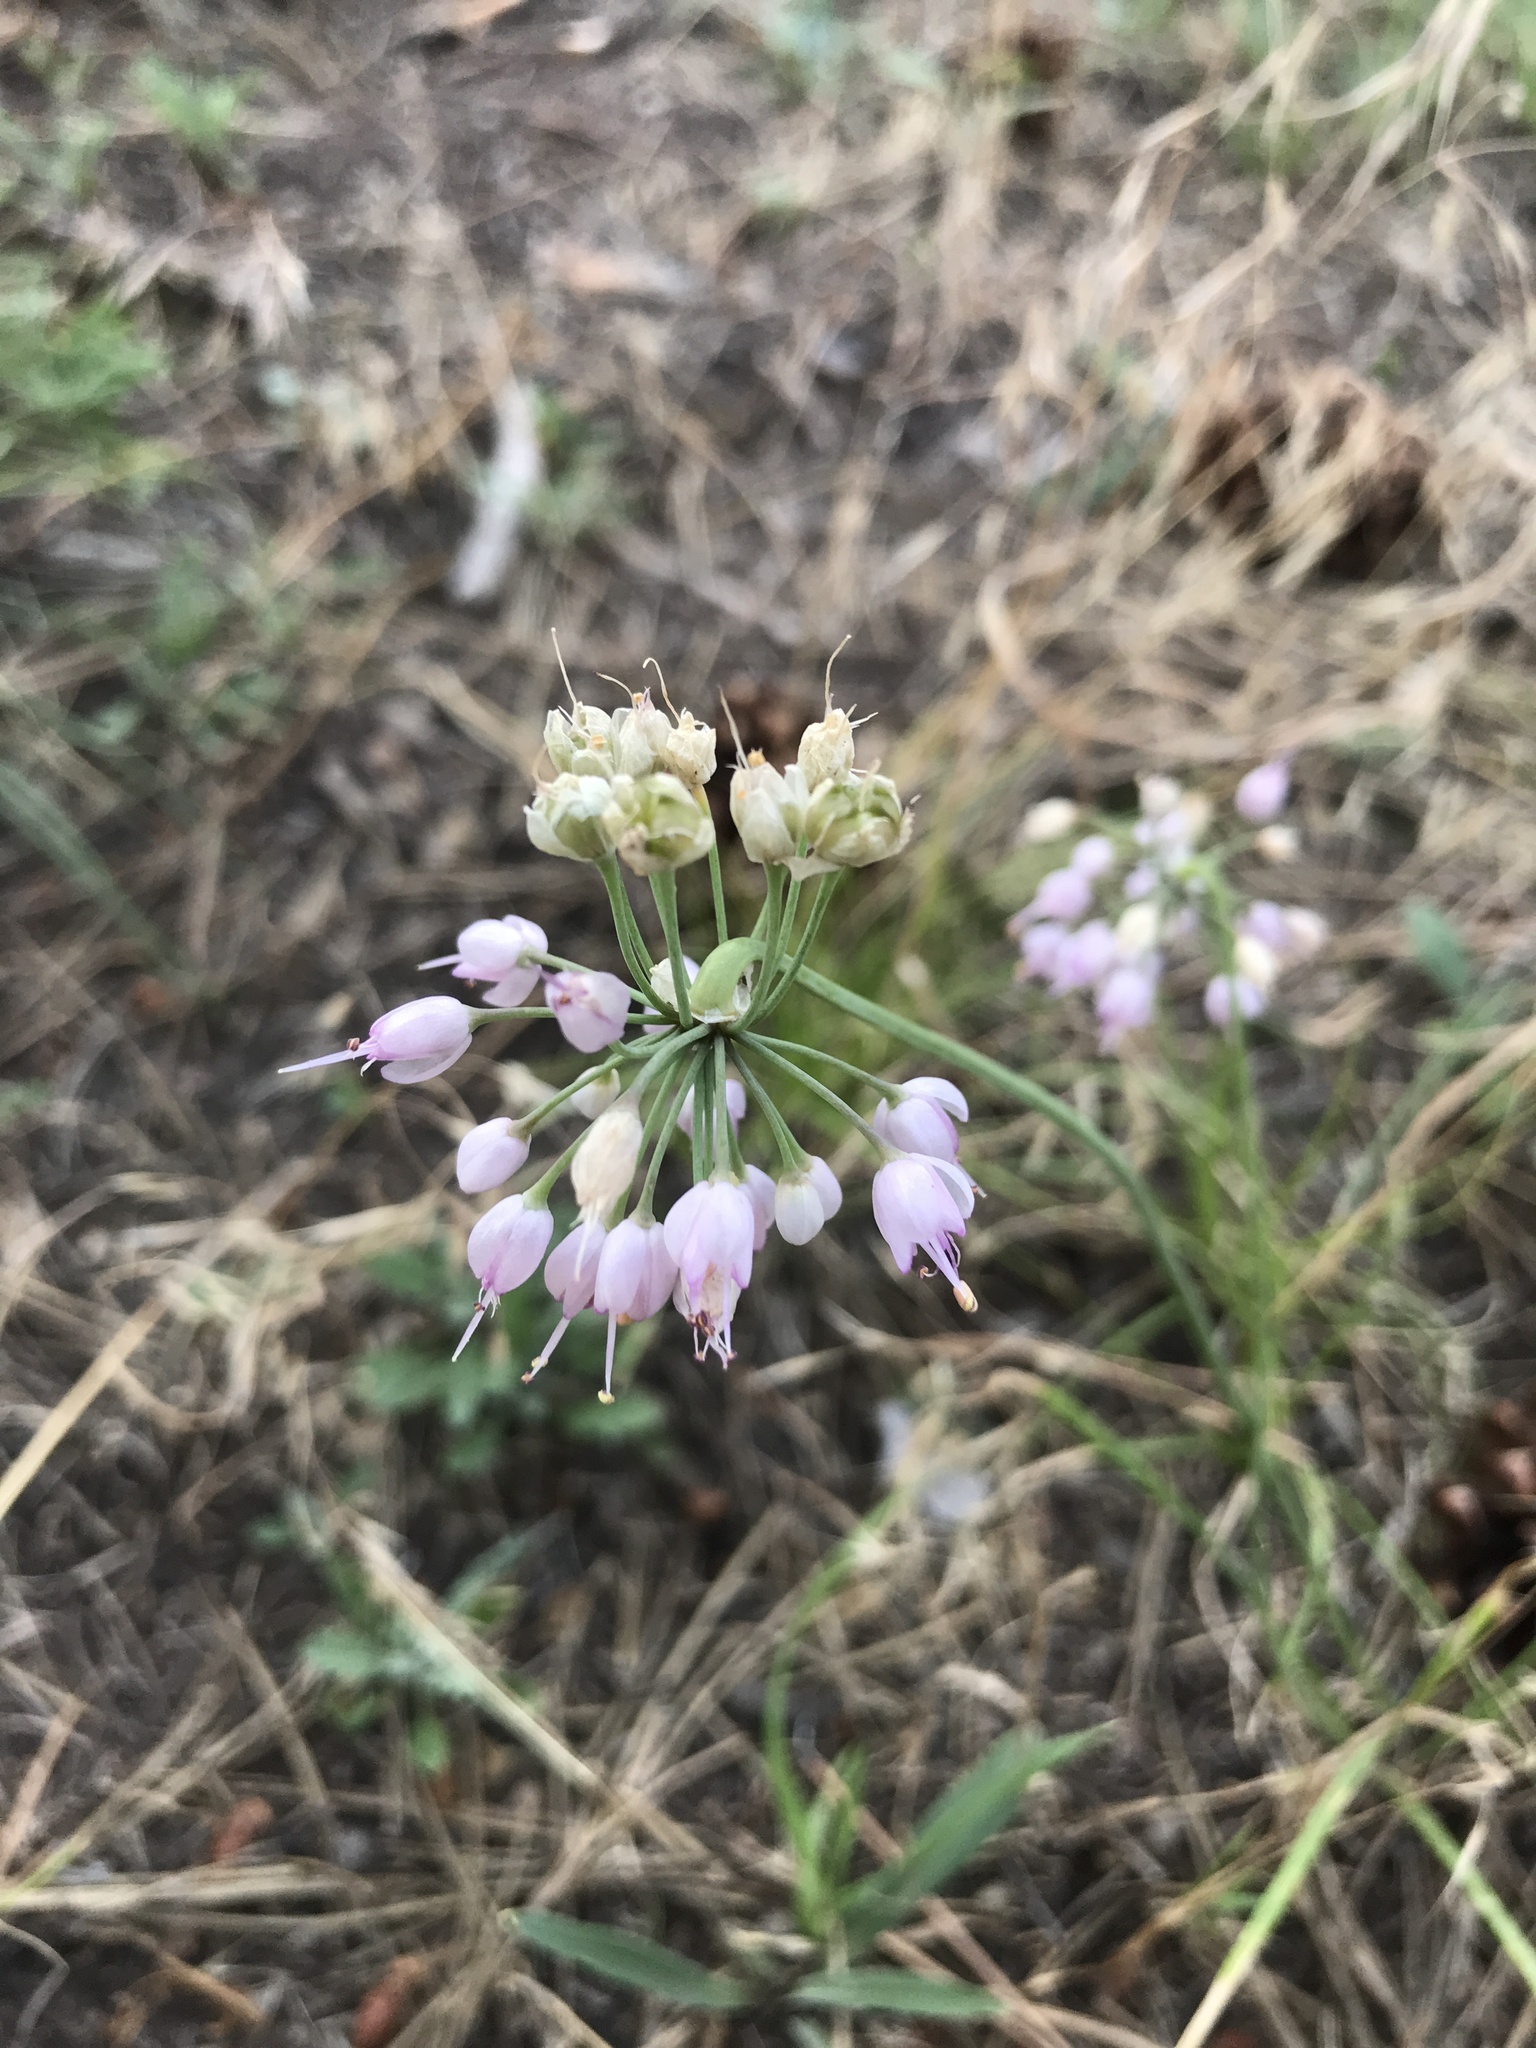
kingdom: Plantae
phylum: Tracheophyta
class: Liliopsida
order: Asparagales
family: Amaryllidaceae
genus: Allium
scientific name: Allium cernuum
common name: Nodding onion
